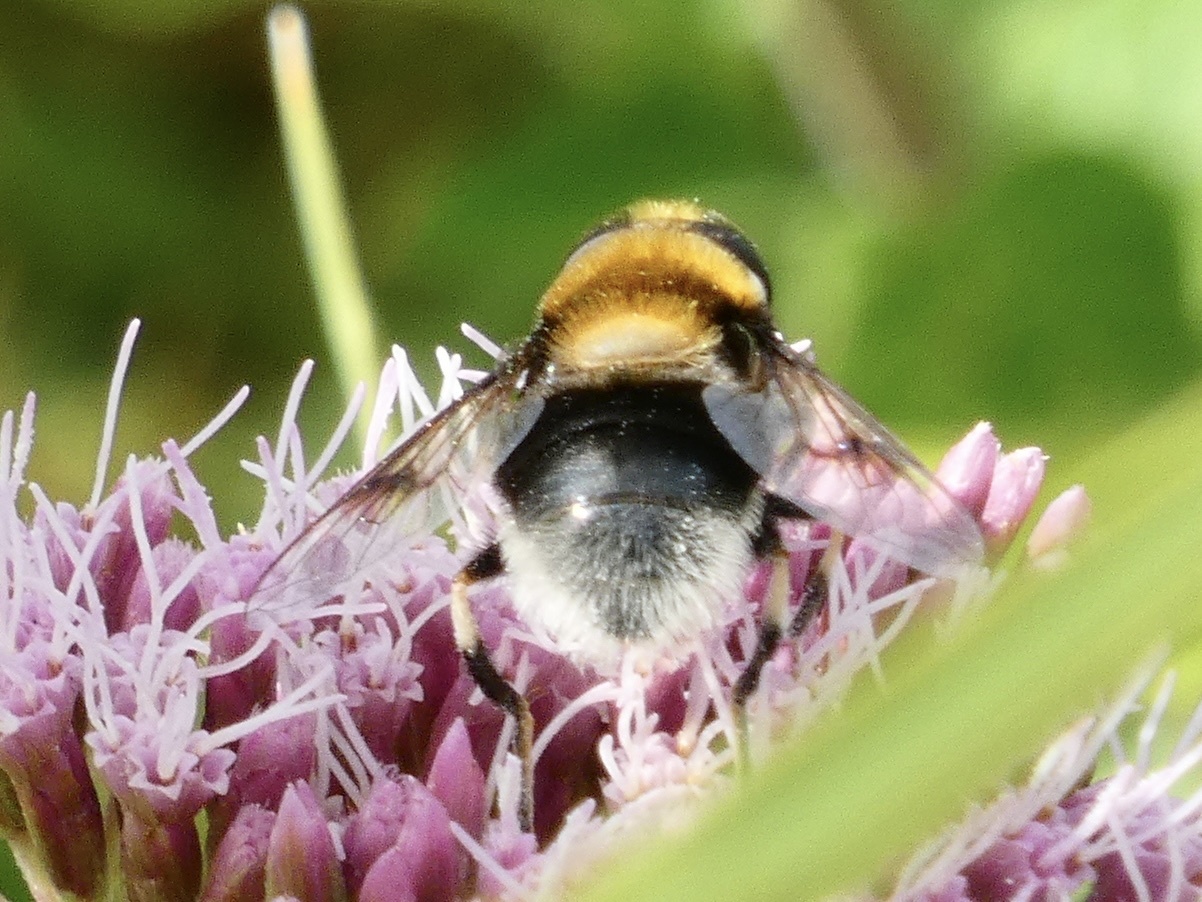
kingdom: Animalia
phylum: Arthropoda
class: Insecta
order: Diptera
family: Syrphidae
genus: Eristalis
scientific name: Eristalis intricaria
